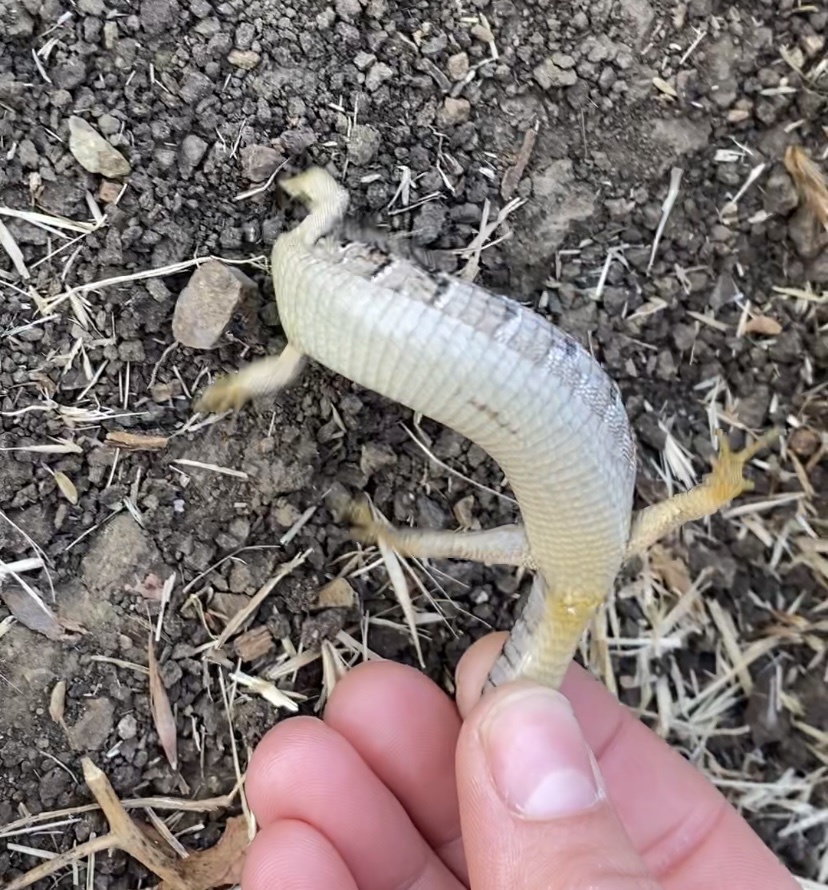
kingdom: Animalia
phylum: Chordata
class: Squamata
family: Anguidae
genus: Elgaria
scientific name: Elgaria multicarinata
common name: Southern alligator lizard
